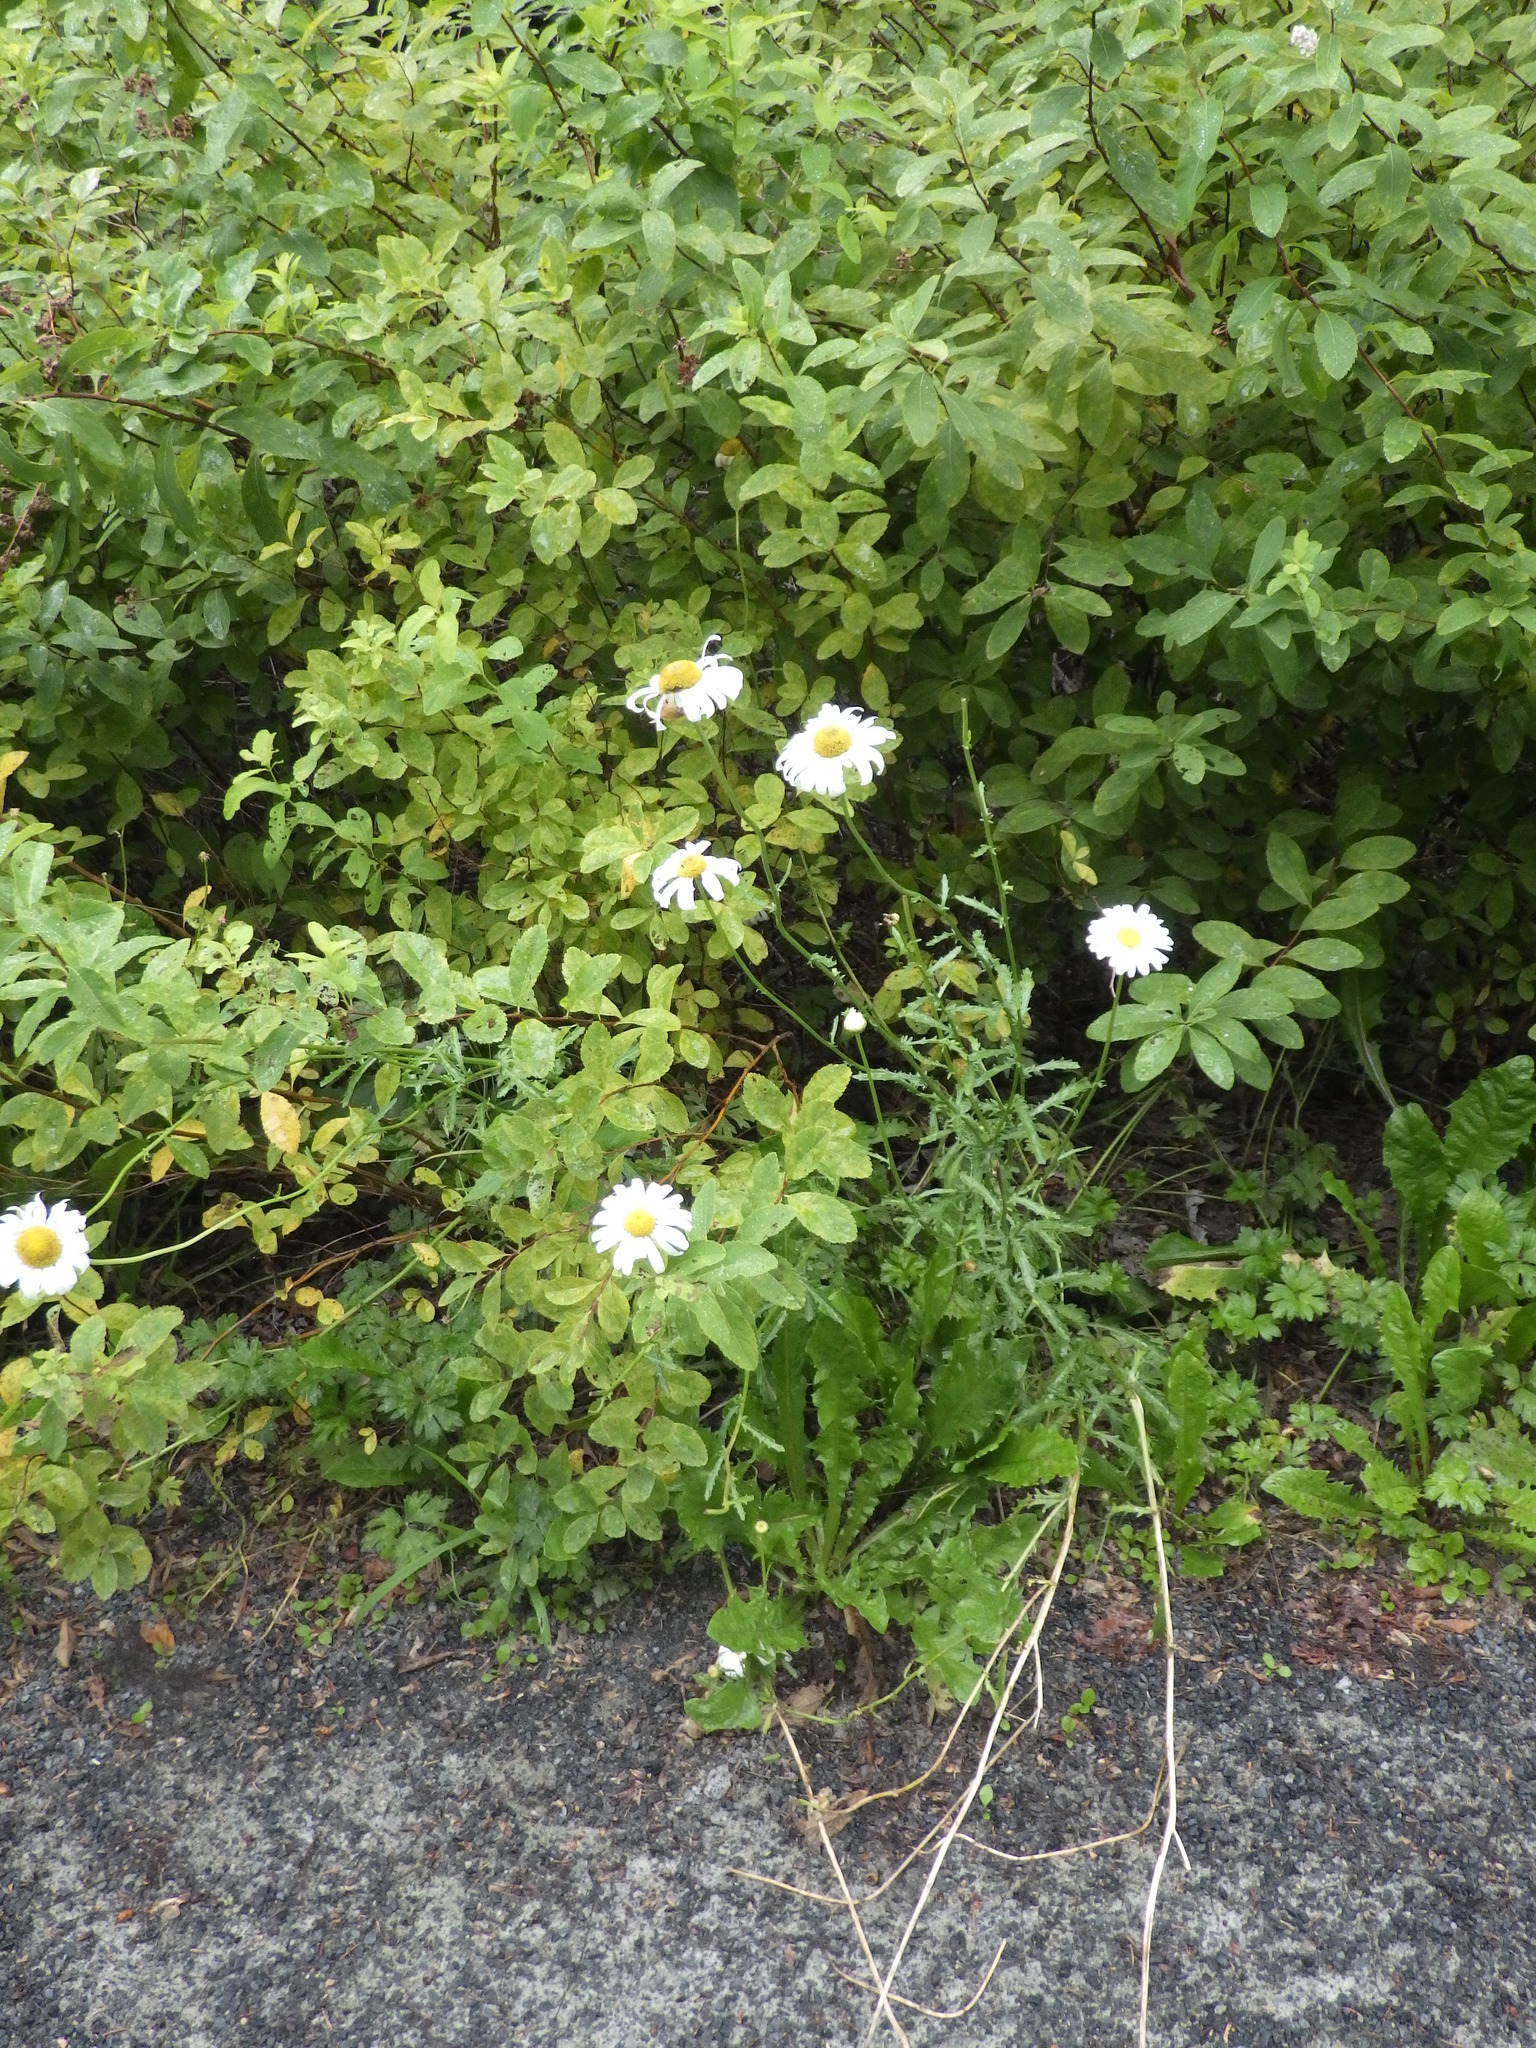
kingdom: Plantae
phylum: Tracheophyta
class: Magnoliopsida
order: Asterales
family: Asteraceae
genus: Leucanthemum
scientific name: Leucanthemum vulgare
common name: Oxeye daisy
